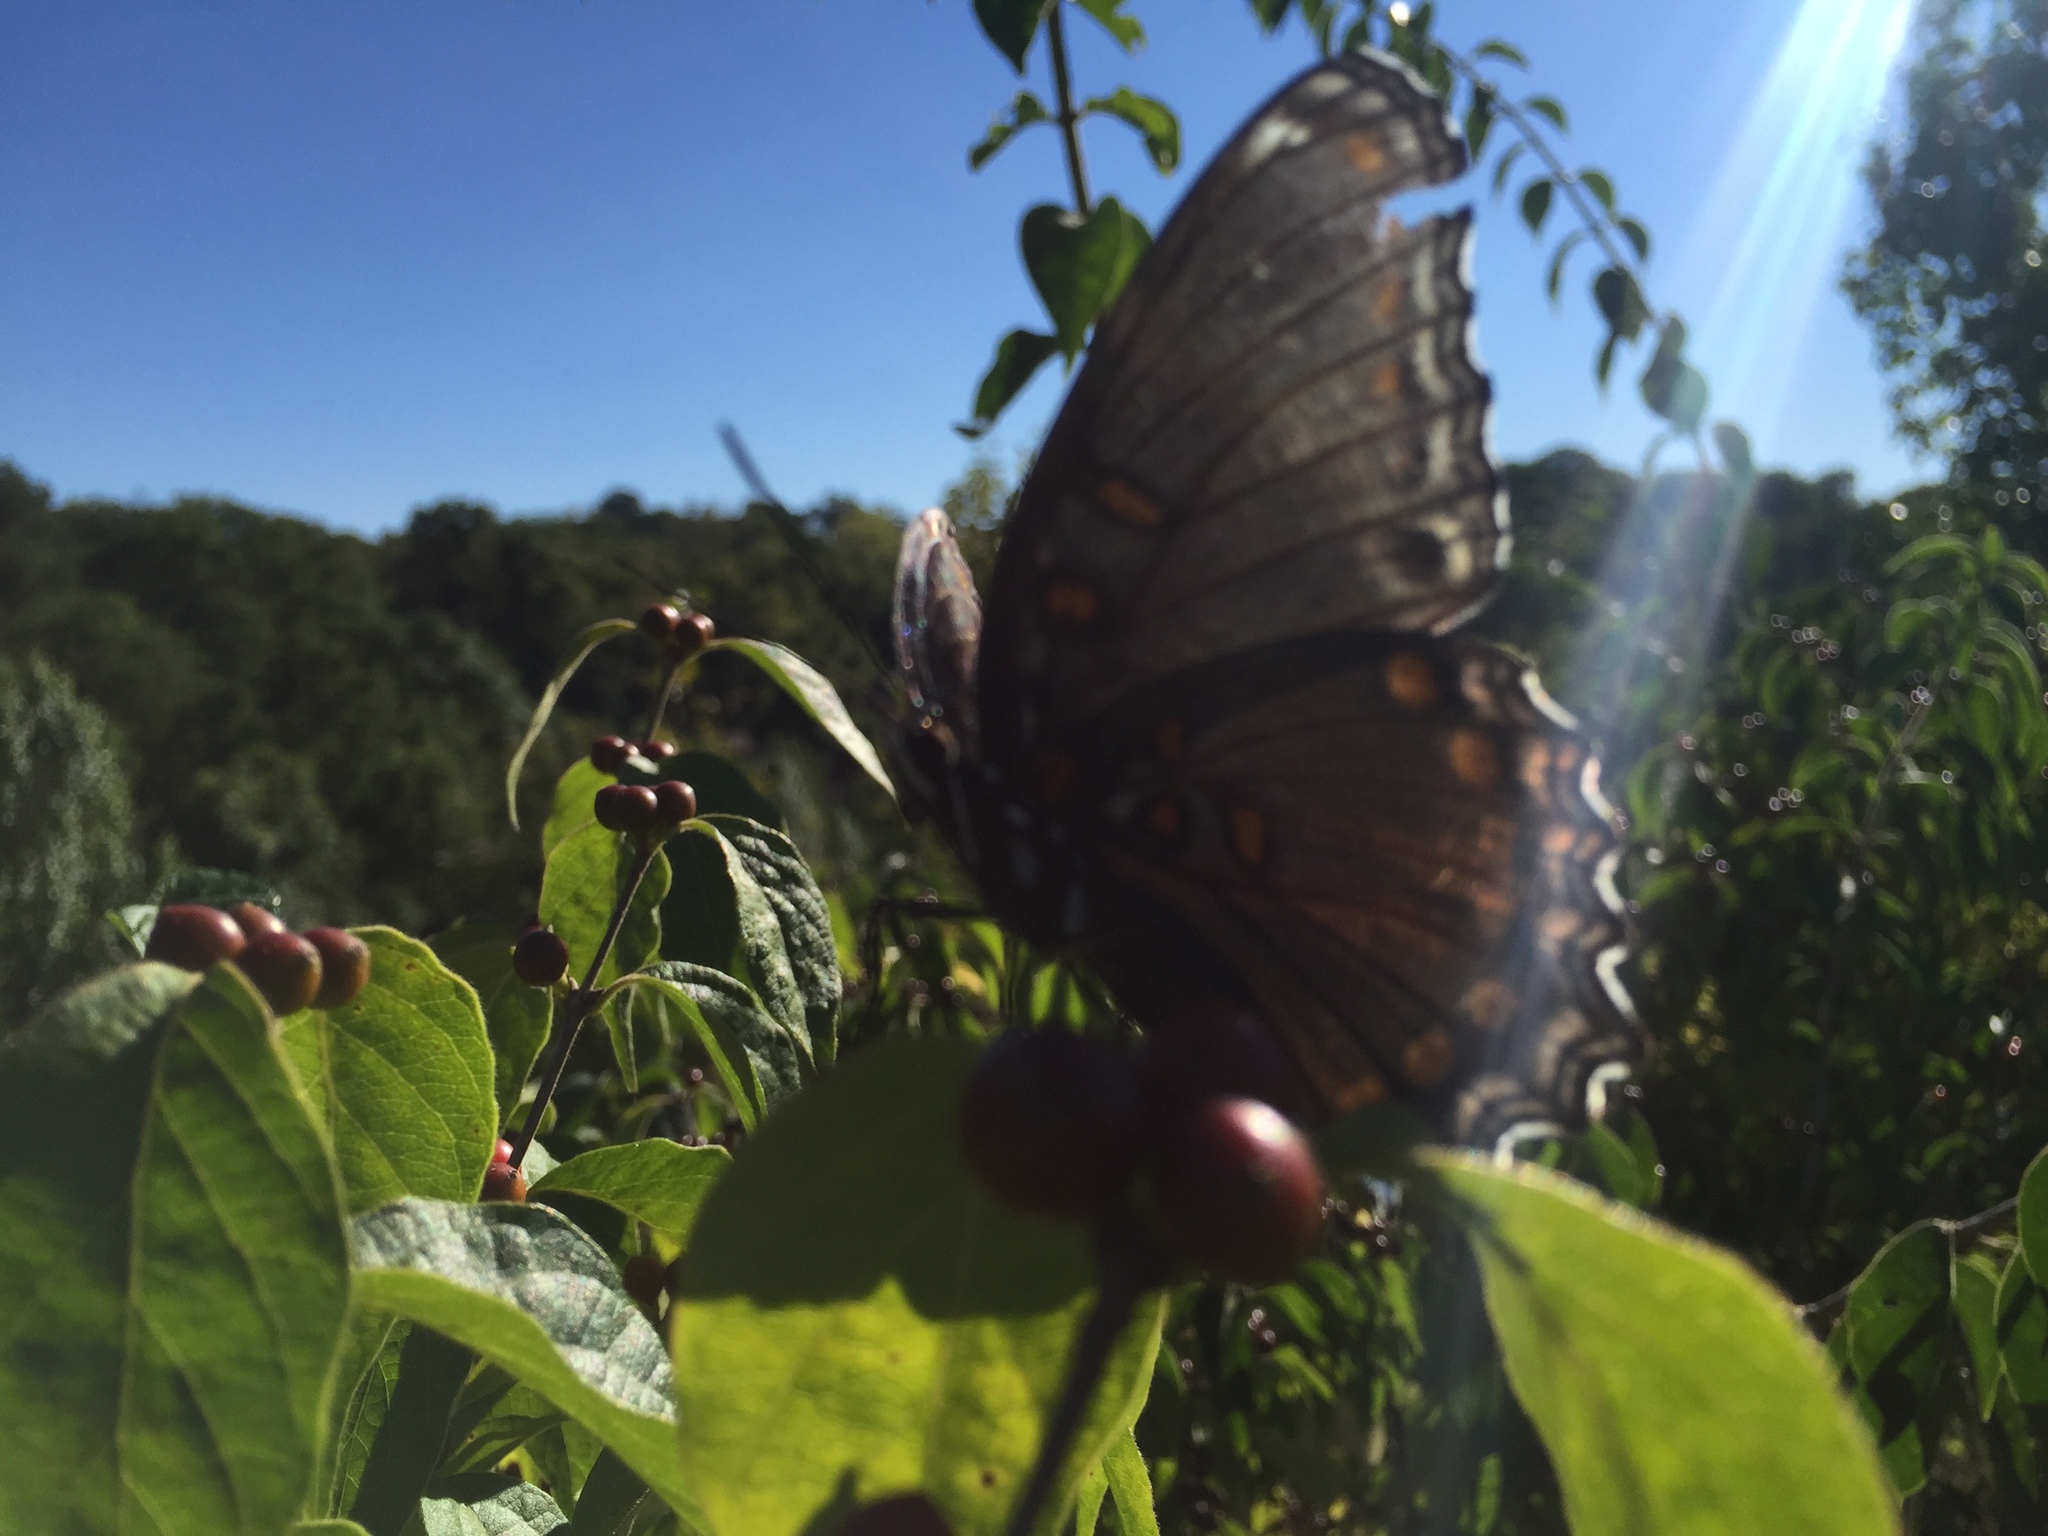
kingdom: Animalia
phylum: Arthropoda
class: Insecta
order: Lepidoptera
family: Nymphalidae
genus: Limenitis
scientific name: Limenitis astyanax
